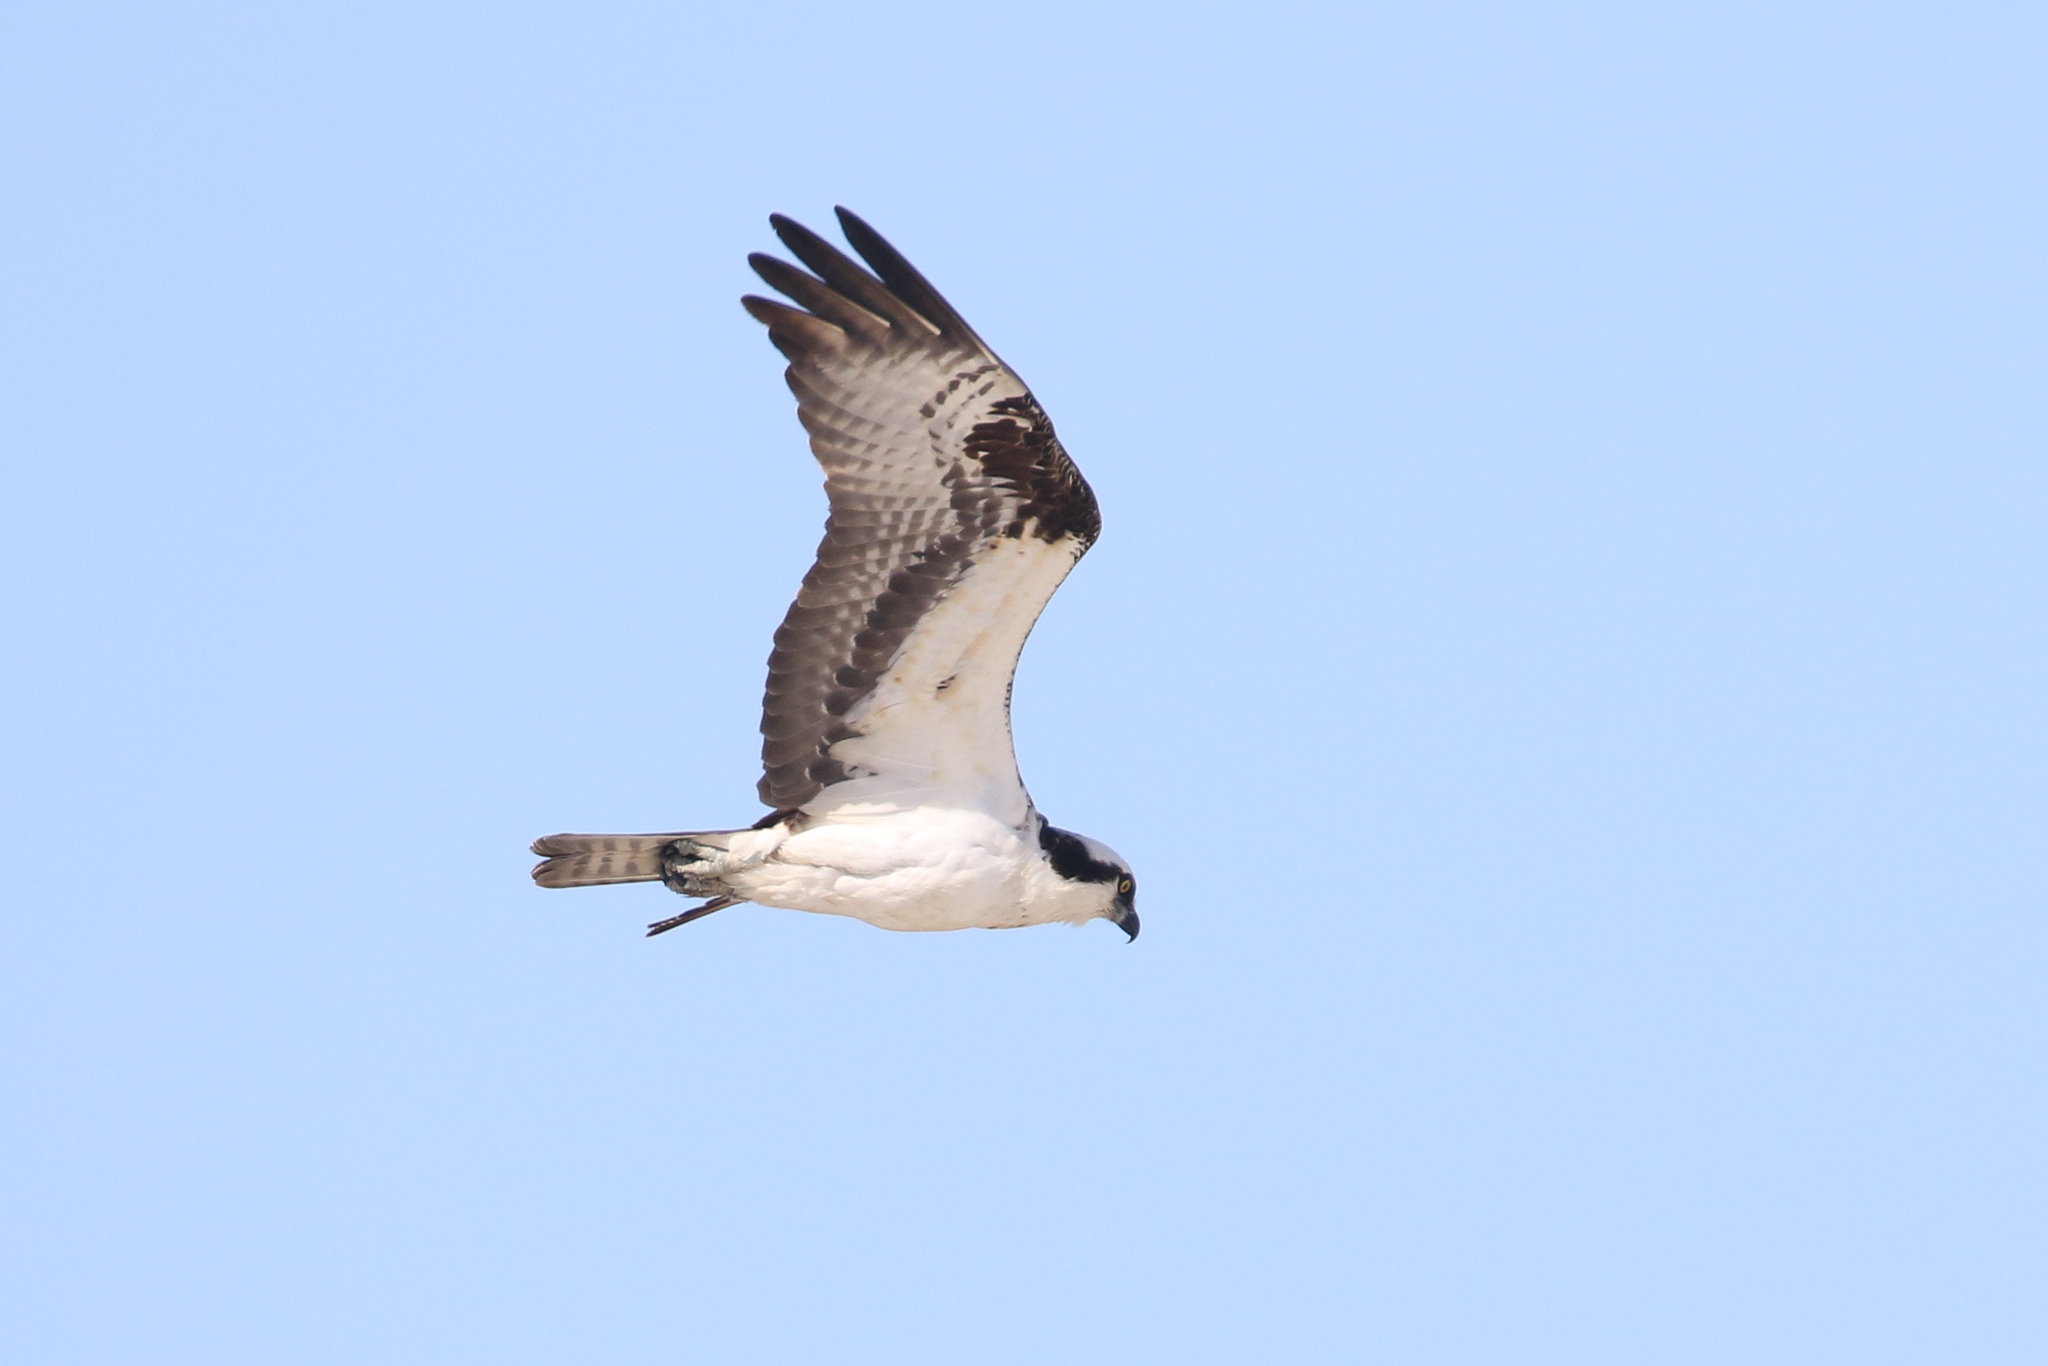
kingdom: Animalia
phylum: Chordata
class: Aves
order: Accipitriformes
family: Pandionidae
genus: Pandion
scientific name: Pandion haliaetus
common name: Osprey
